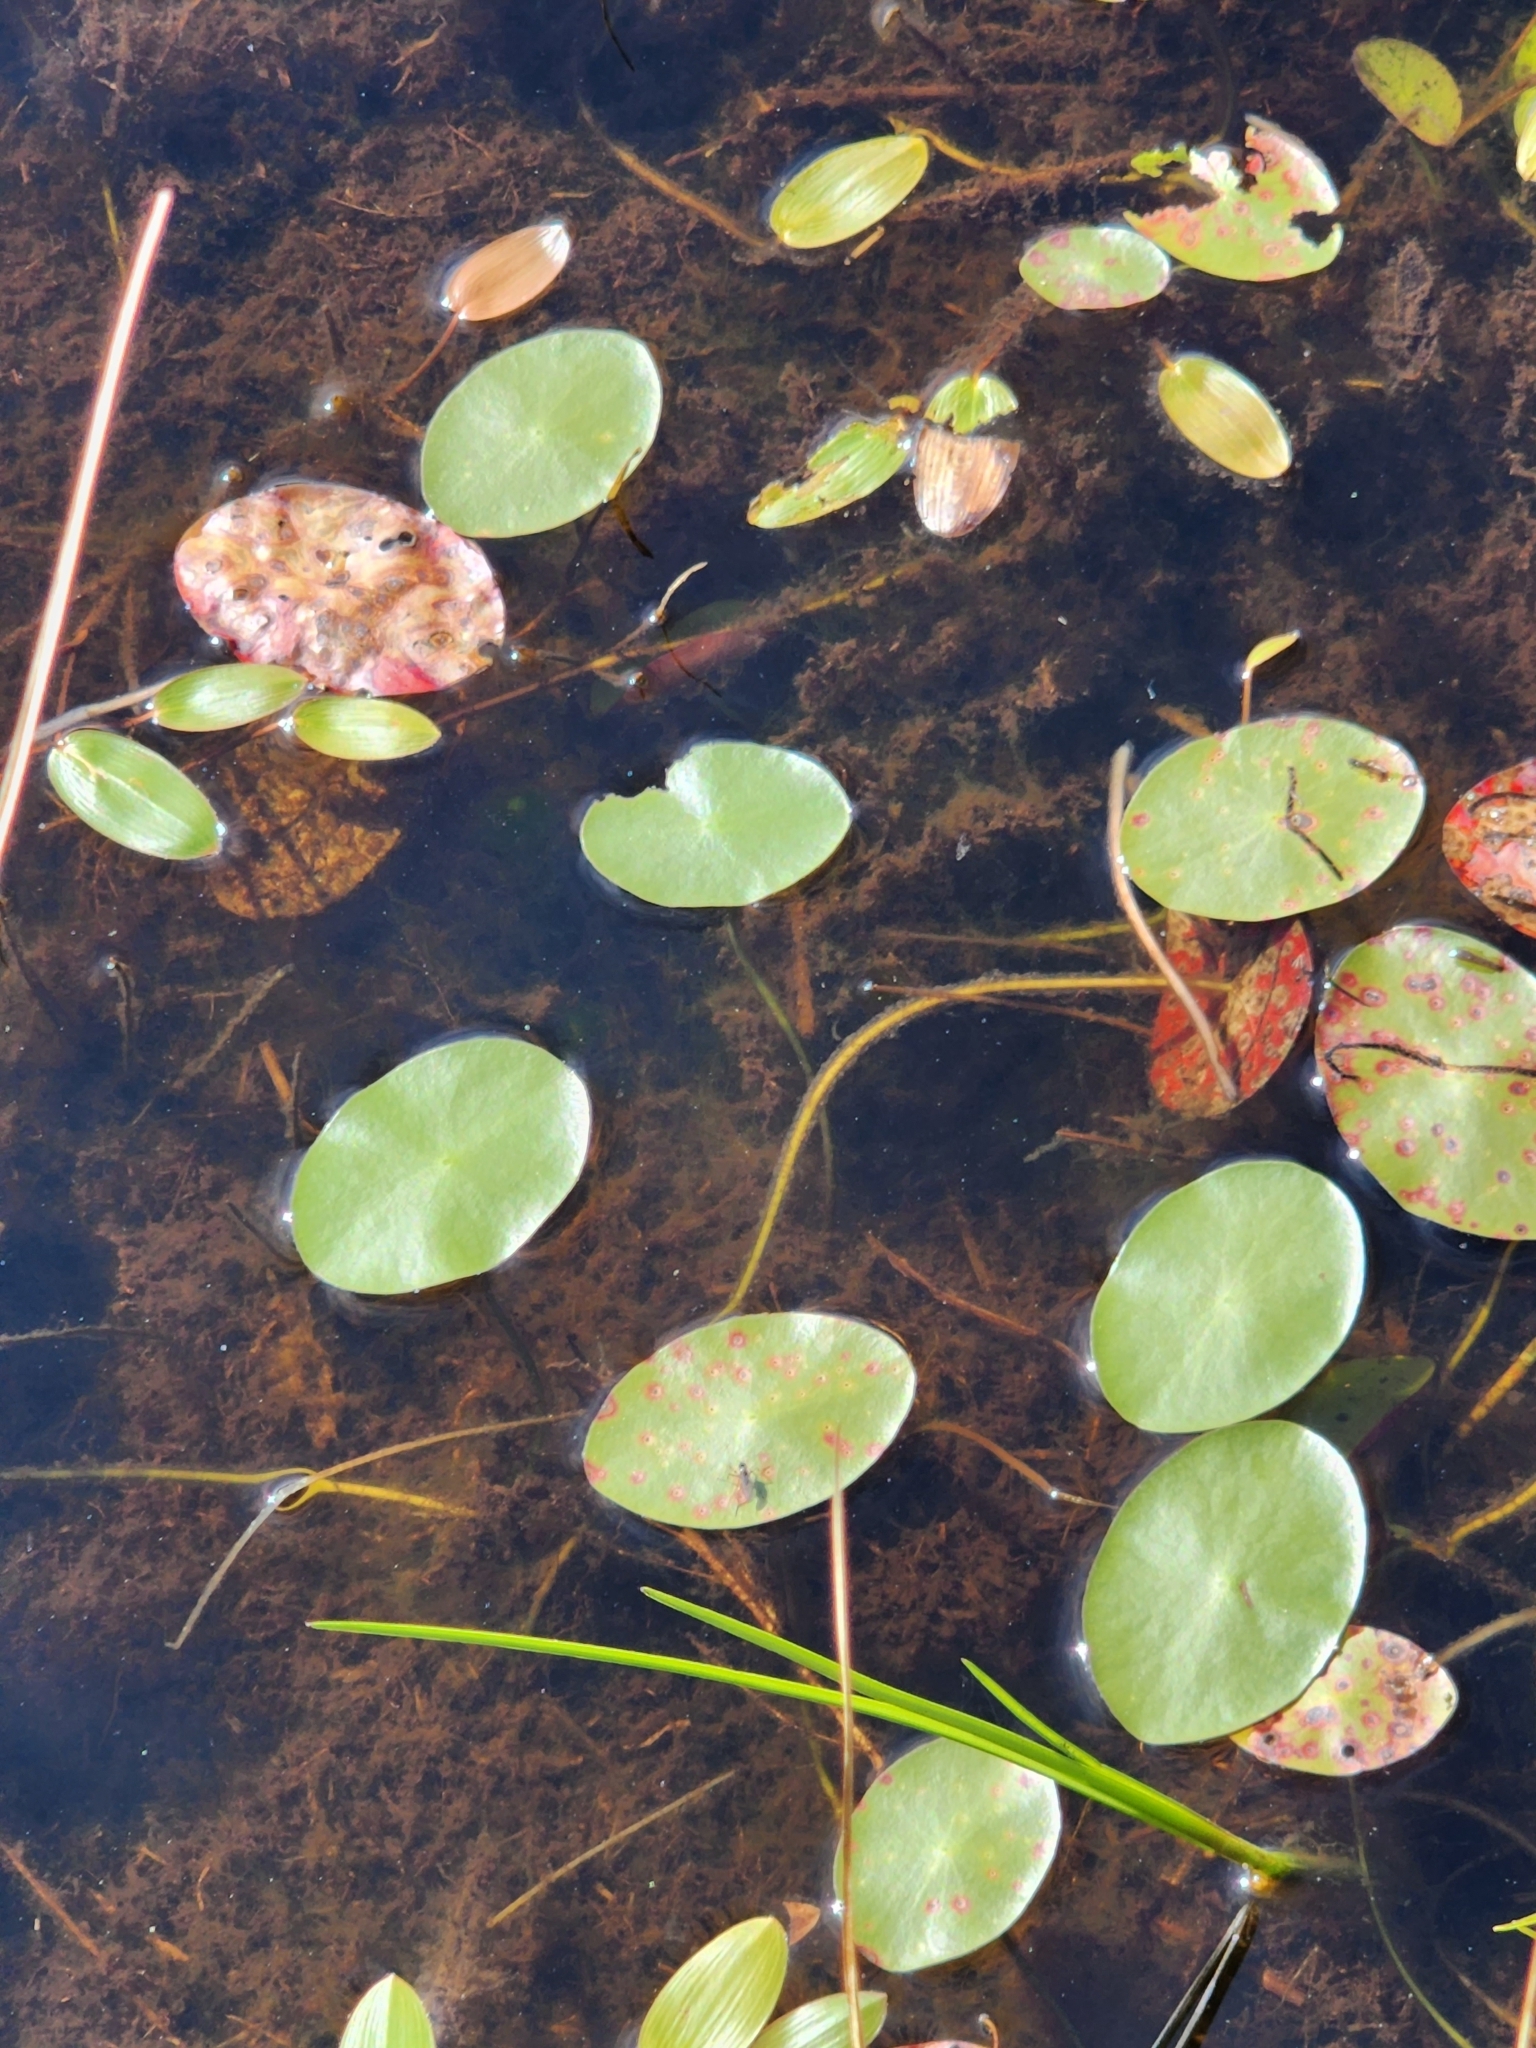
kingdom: Plantae
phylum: Tracheophyta
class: Magnoliopsida
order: Nymphaeales
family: Cabombaceae
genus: Brasenia
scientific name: Brasenia schreberi
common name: Water-shield
